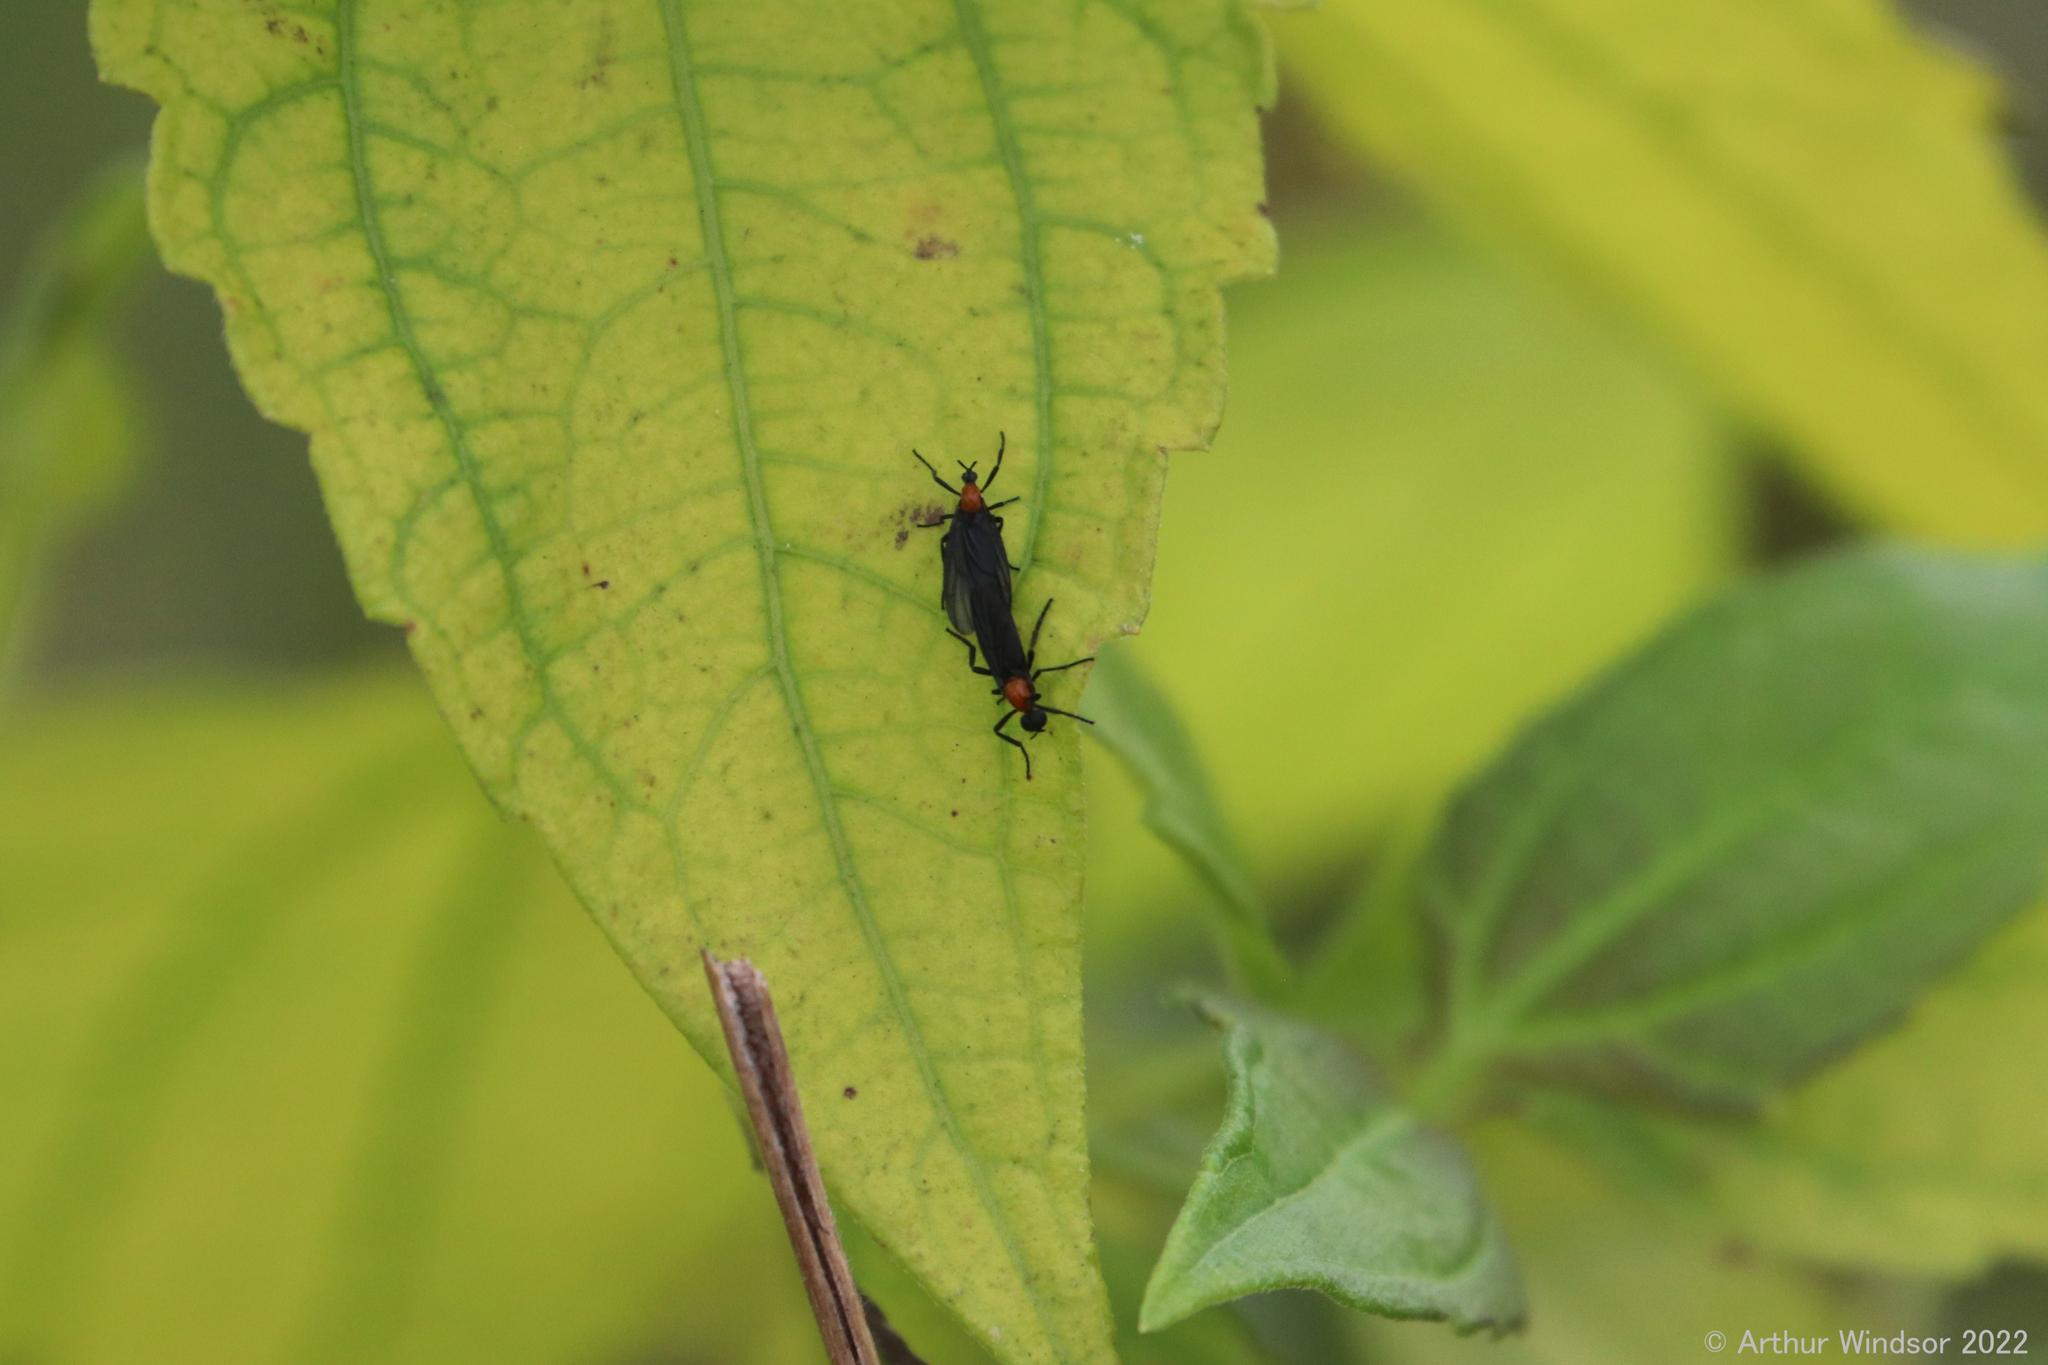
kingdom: Animalia
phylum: Arthropoda
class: Insecta
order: Diptera
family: Bibionidae
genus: Plecia
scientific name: Plecia nearctica
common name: March fly
